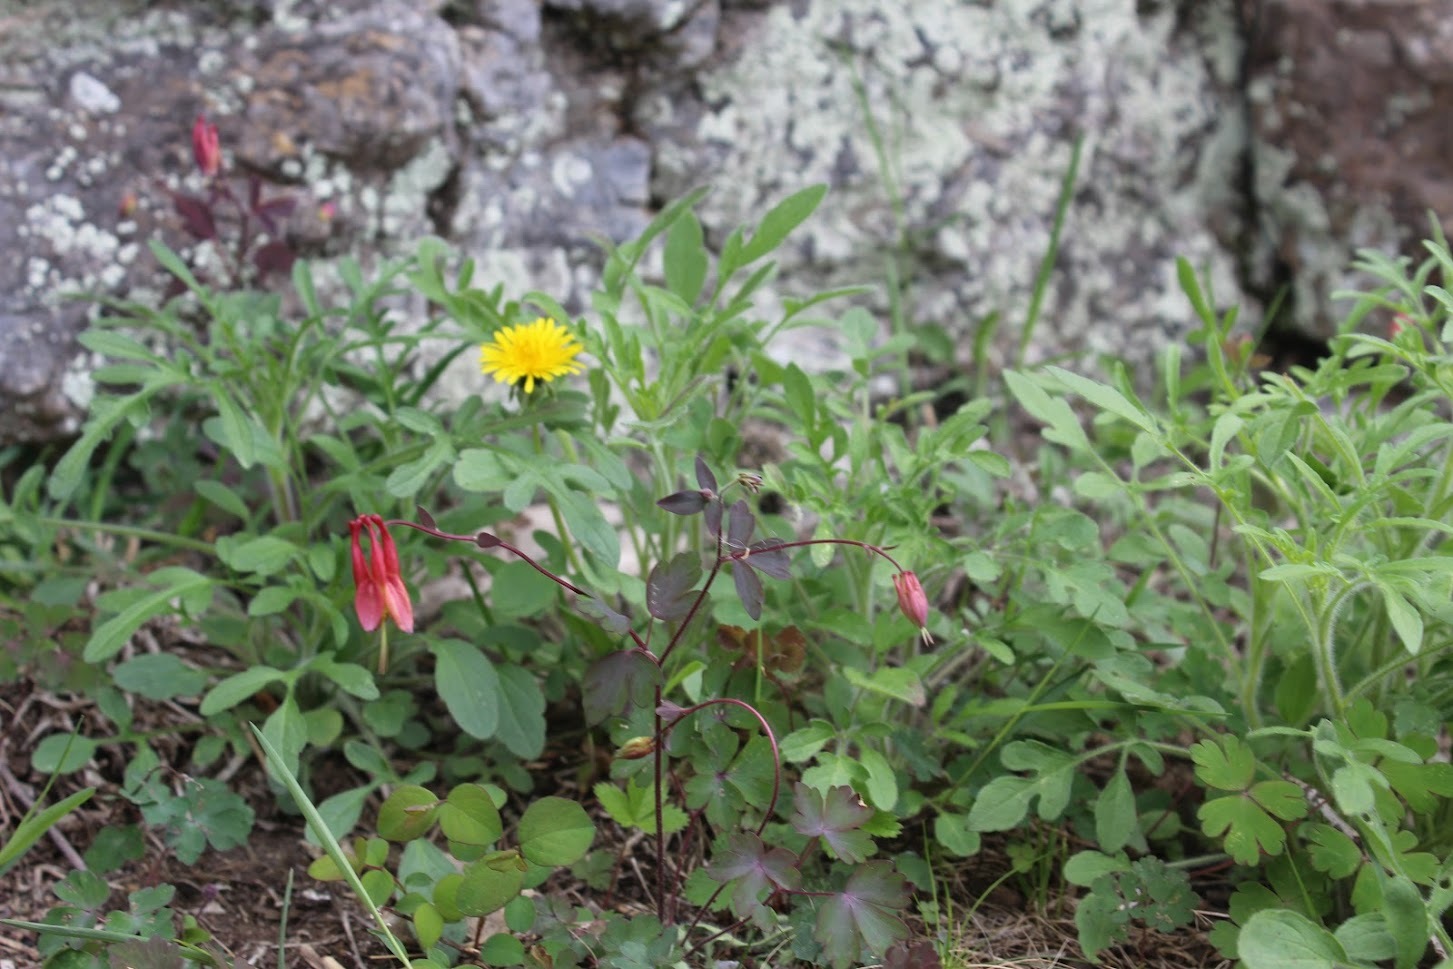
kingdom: Plantae
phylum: Tracheophyta
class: Magnoliopsida
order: Dipsacales
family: Caprifoliaceae
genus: Symphoricarpos
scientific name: Symphoricarpos orbiculatus
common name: Coralberry
